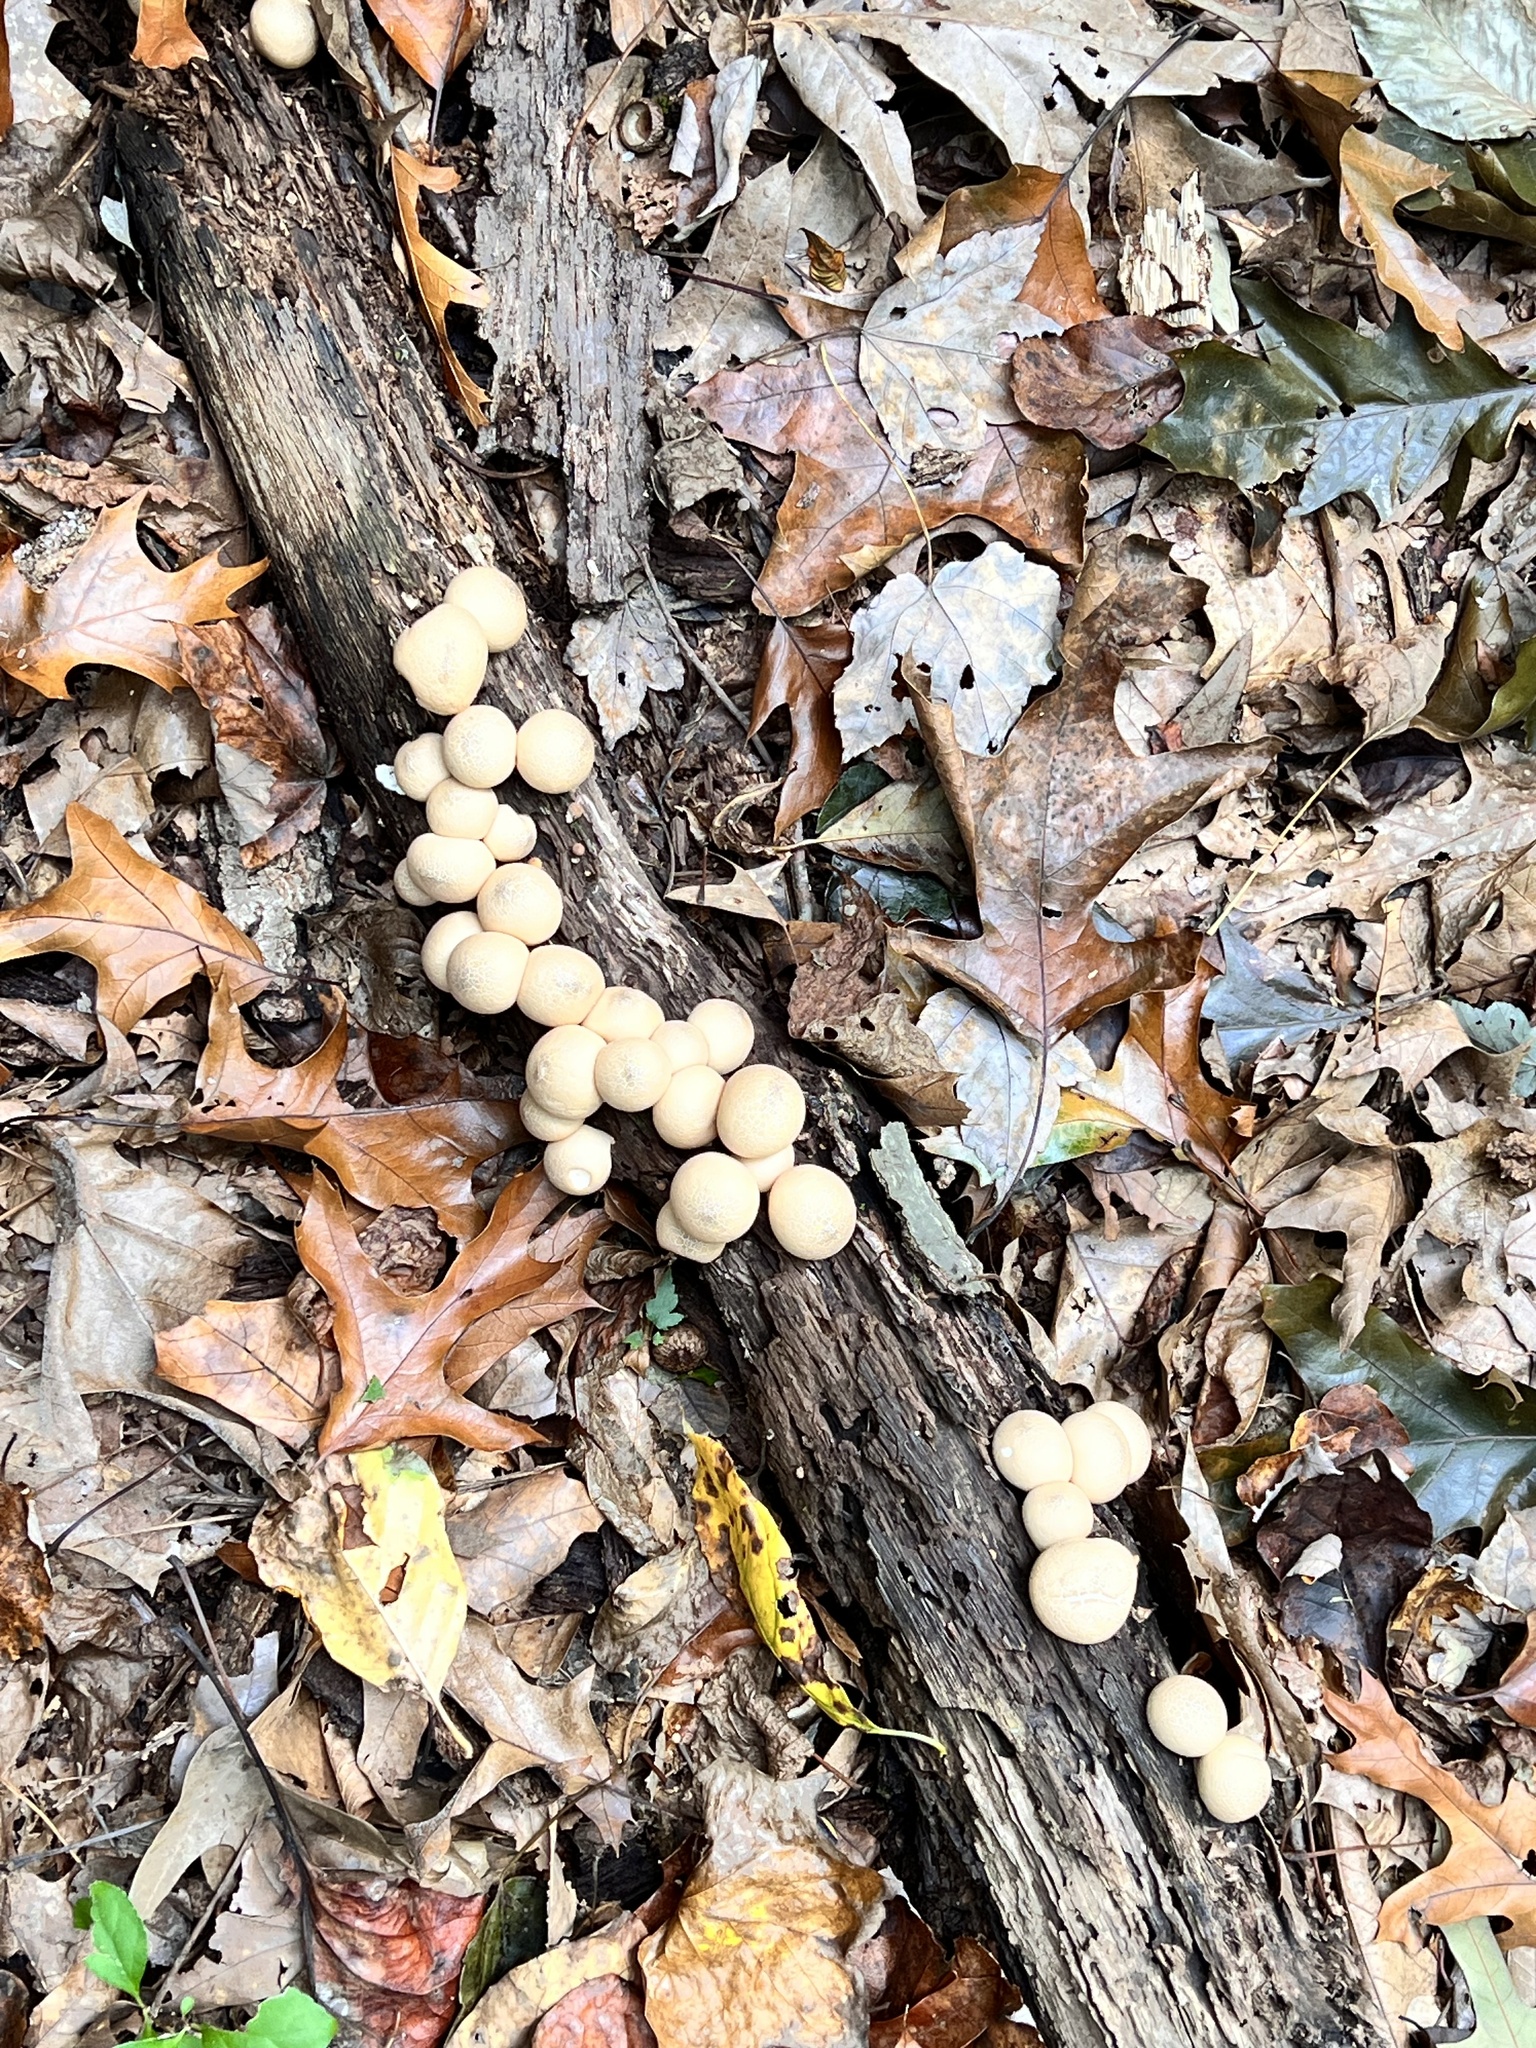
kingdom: Fungi
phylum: Basidiomycota
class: Agaricomycetes
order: Agaricales
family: Lycoperdaceae
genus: Apioperdon
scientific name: Apioperdon pyriforme
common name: Pear-shaped puffball
